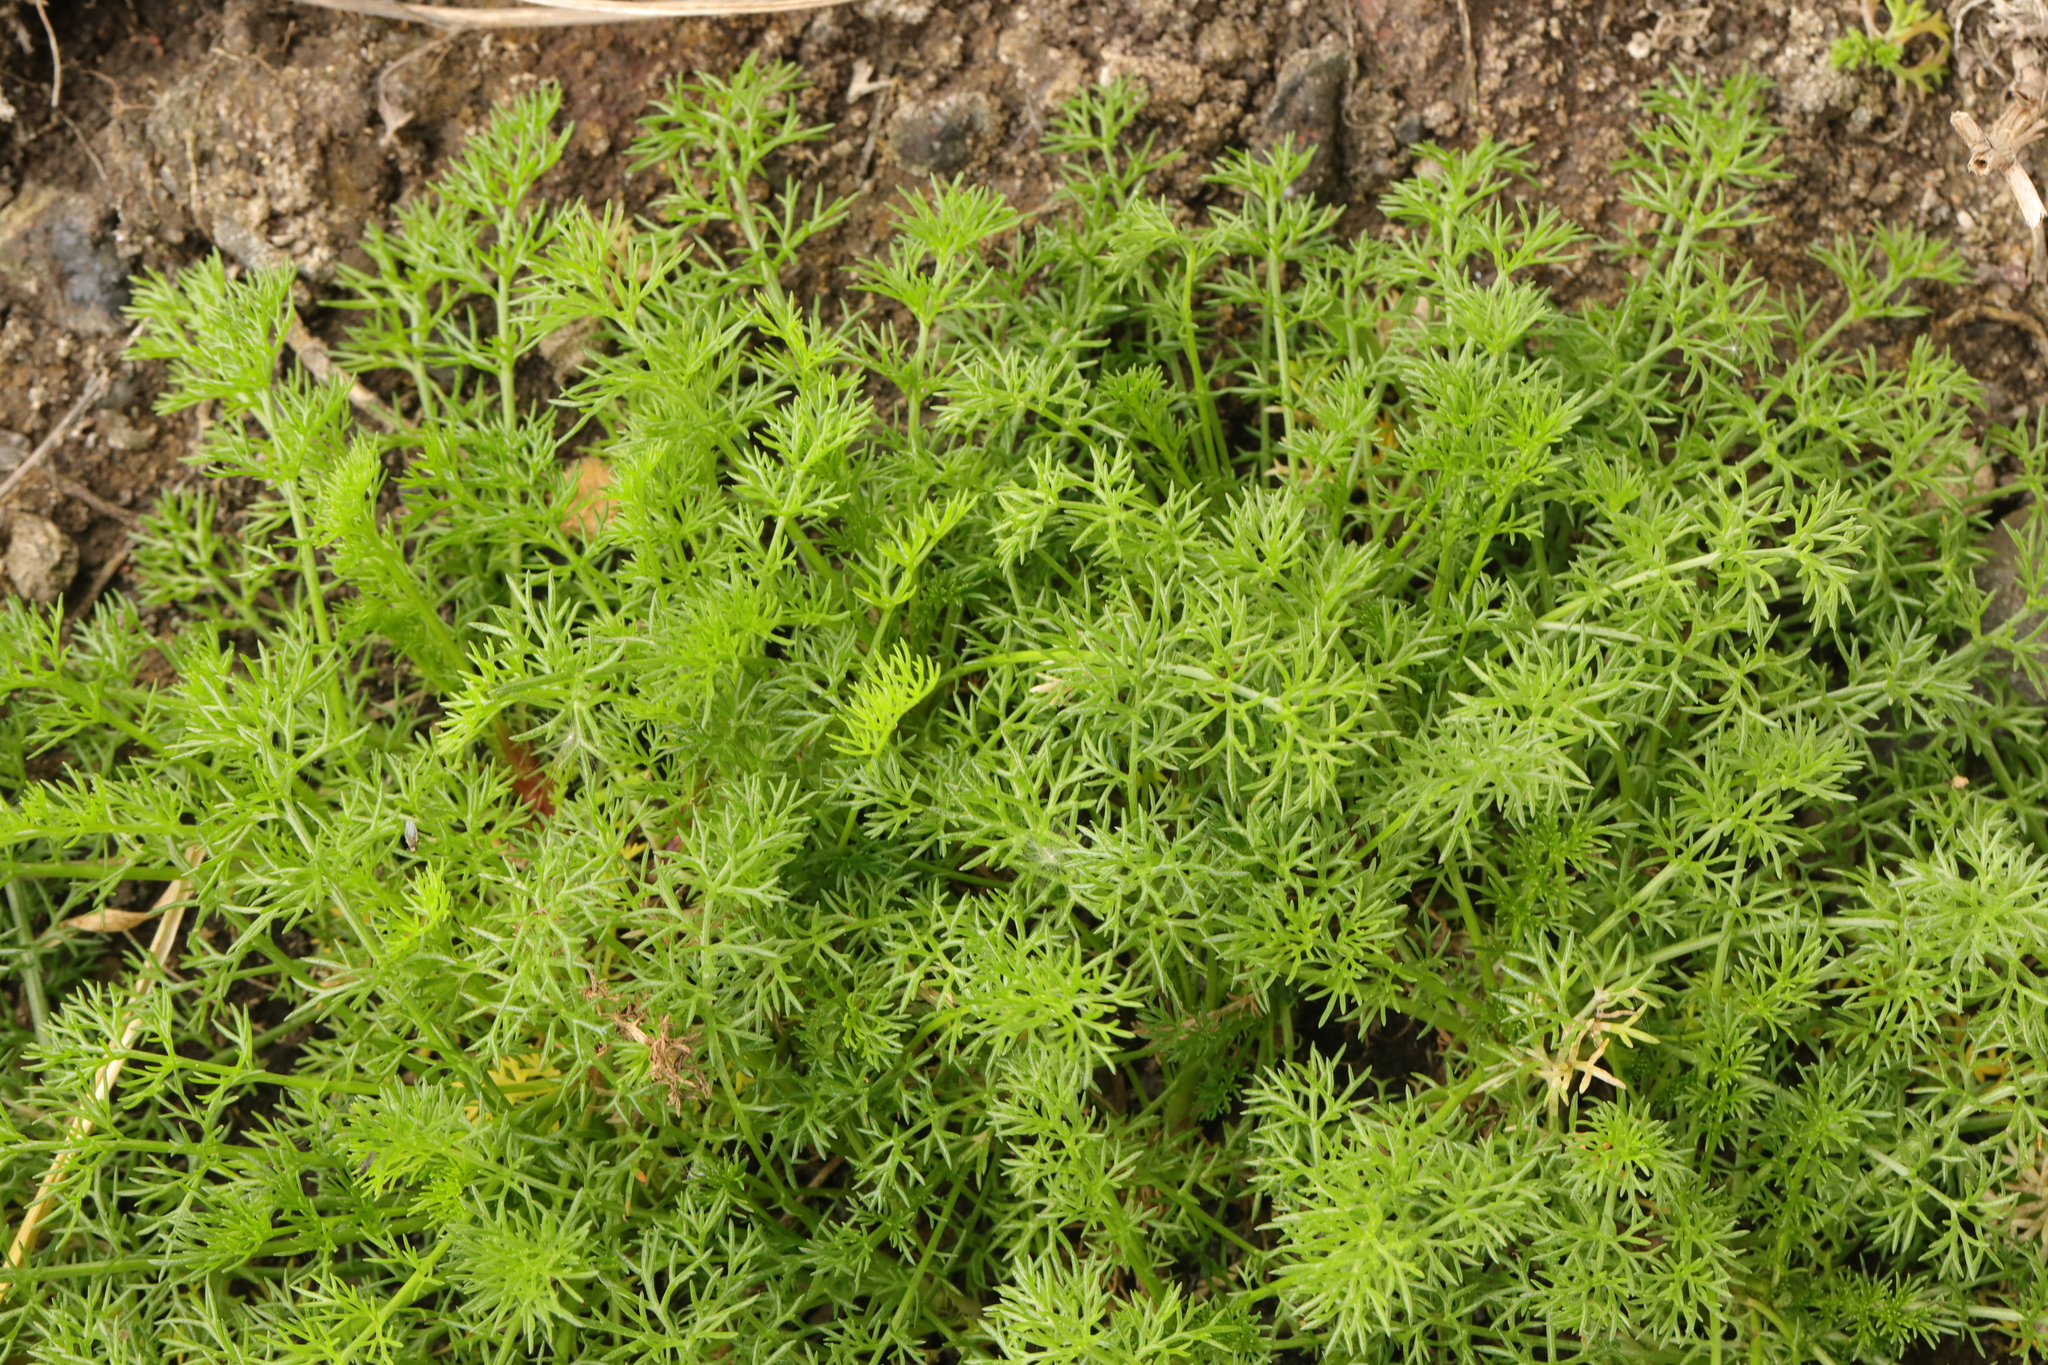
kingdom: Plantae
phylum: Tracheophyta
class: Magnoliopsida
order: Asterales
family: Asteraceae
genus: Tripleurospermum
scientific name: Tripleurospermum maritimum
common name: Sea mayweed
